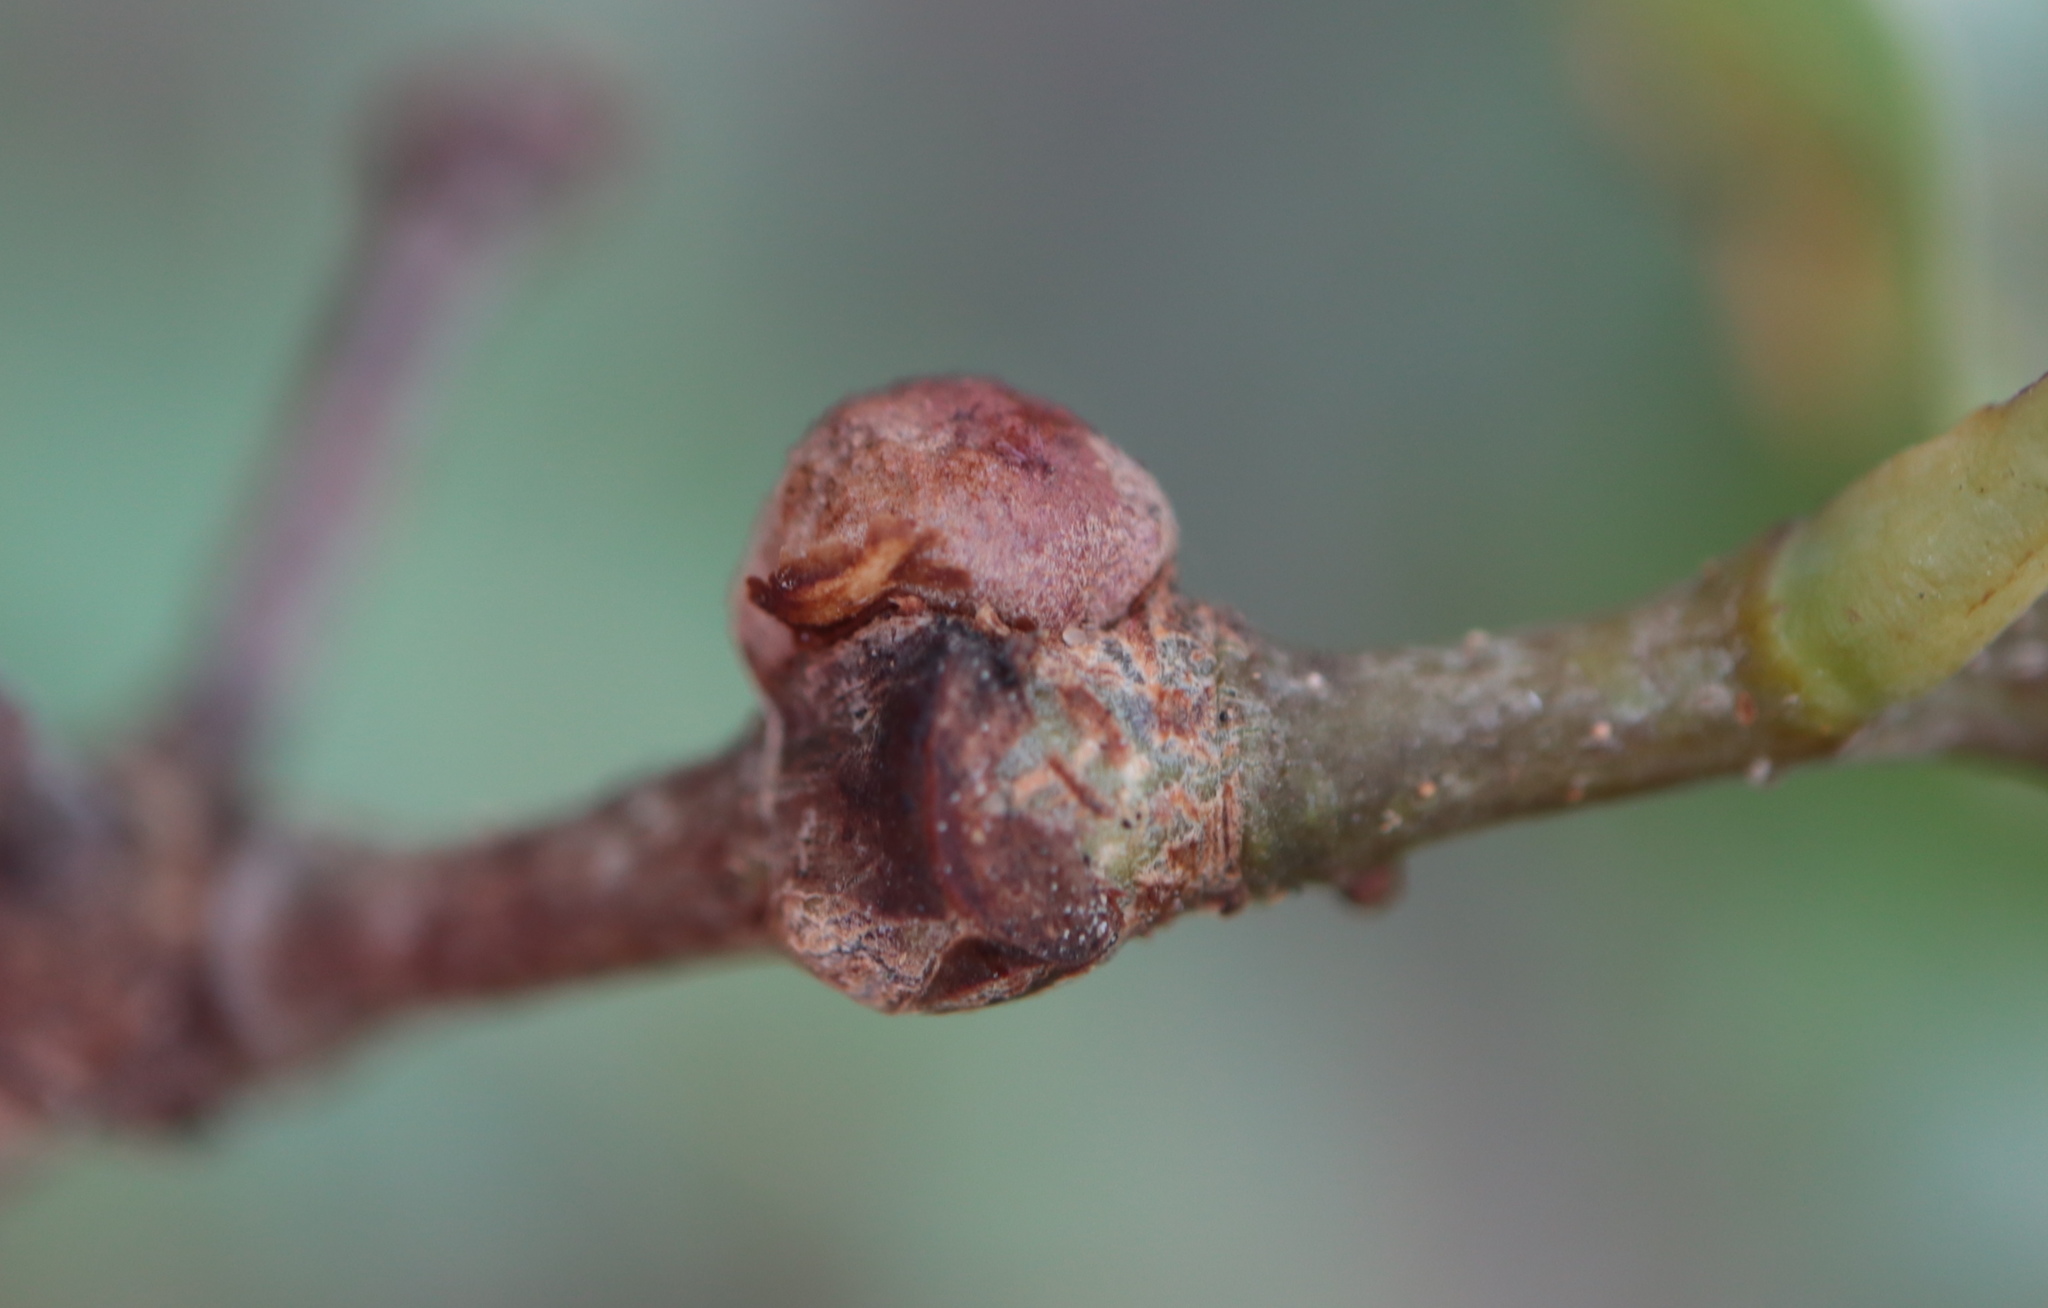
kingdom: Animalia
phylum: Arthropoda
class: Insecta
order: Hymenoptera
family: Cynipidae
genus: Disholcaspis
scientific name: Disholcaspis quercusglobulus
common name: Round bullet gall wasp
